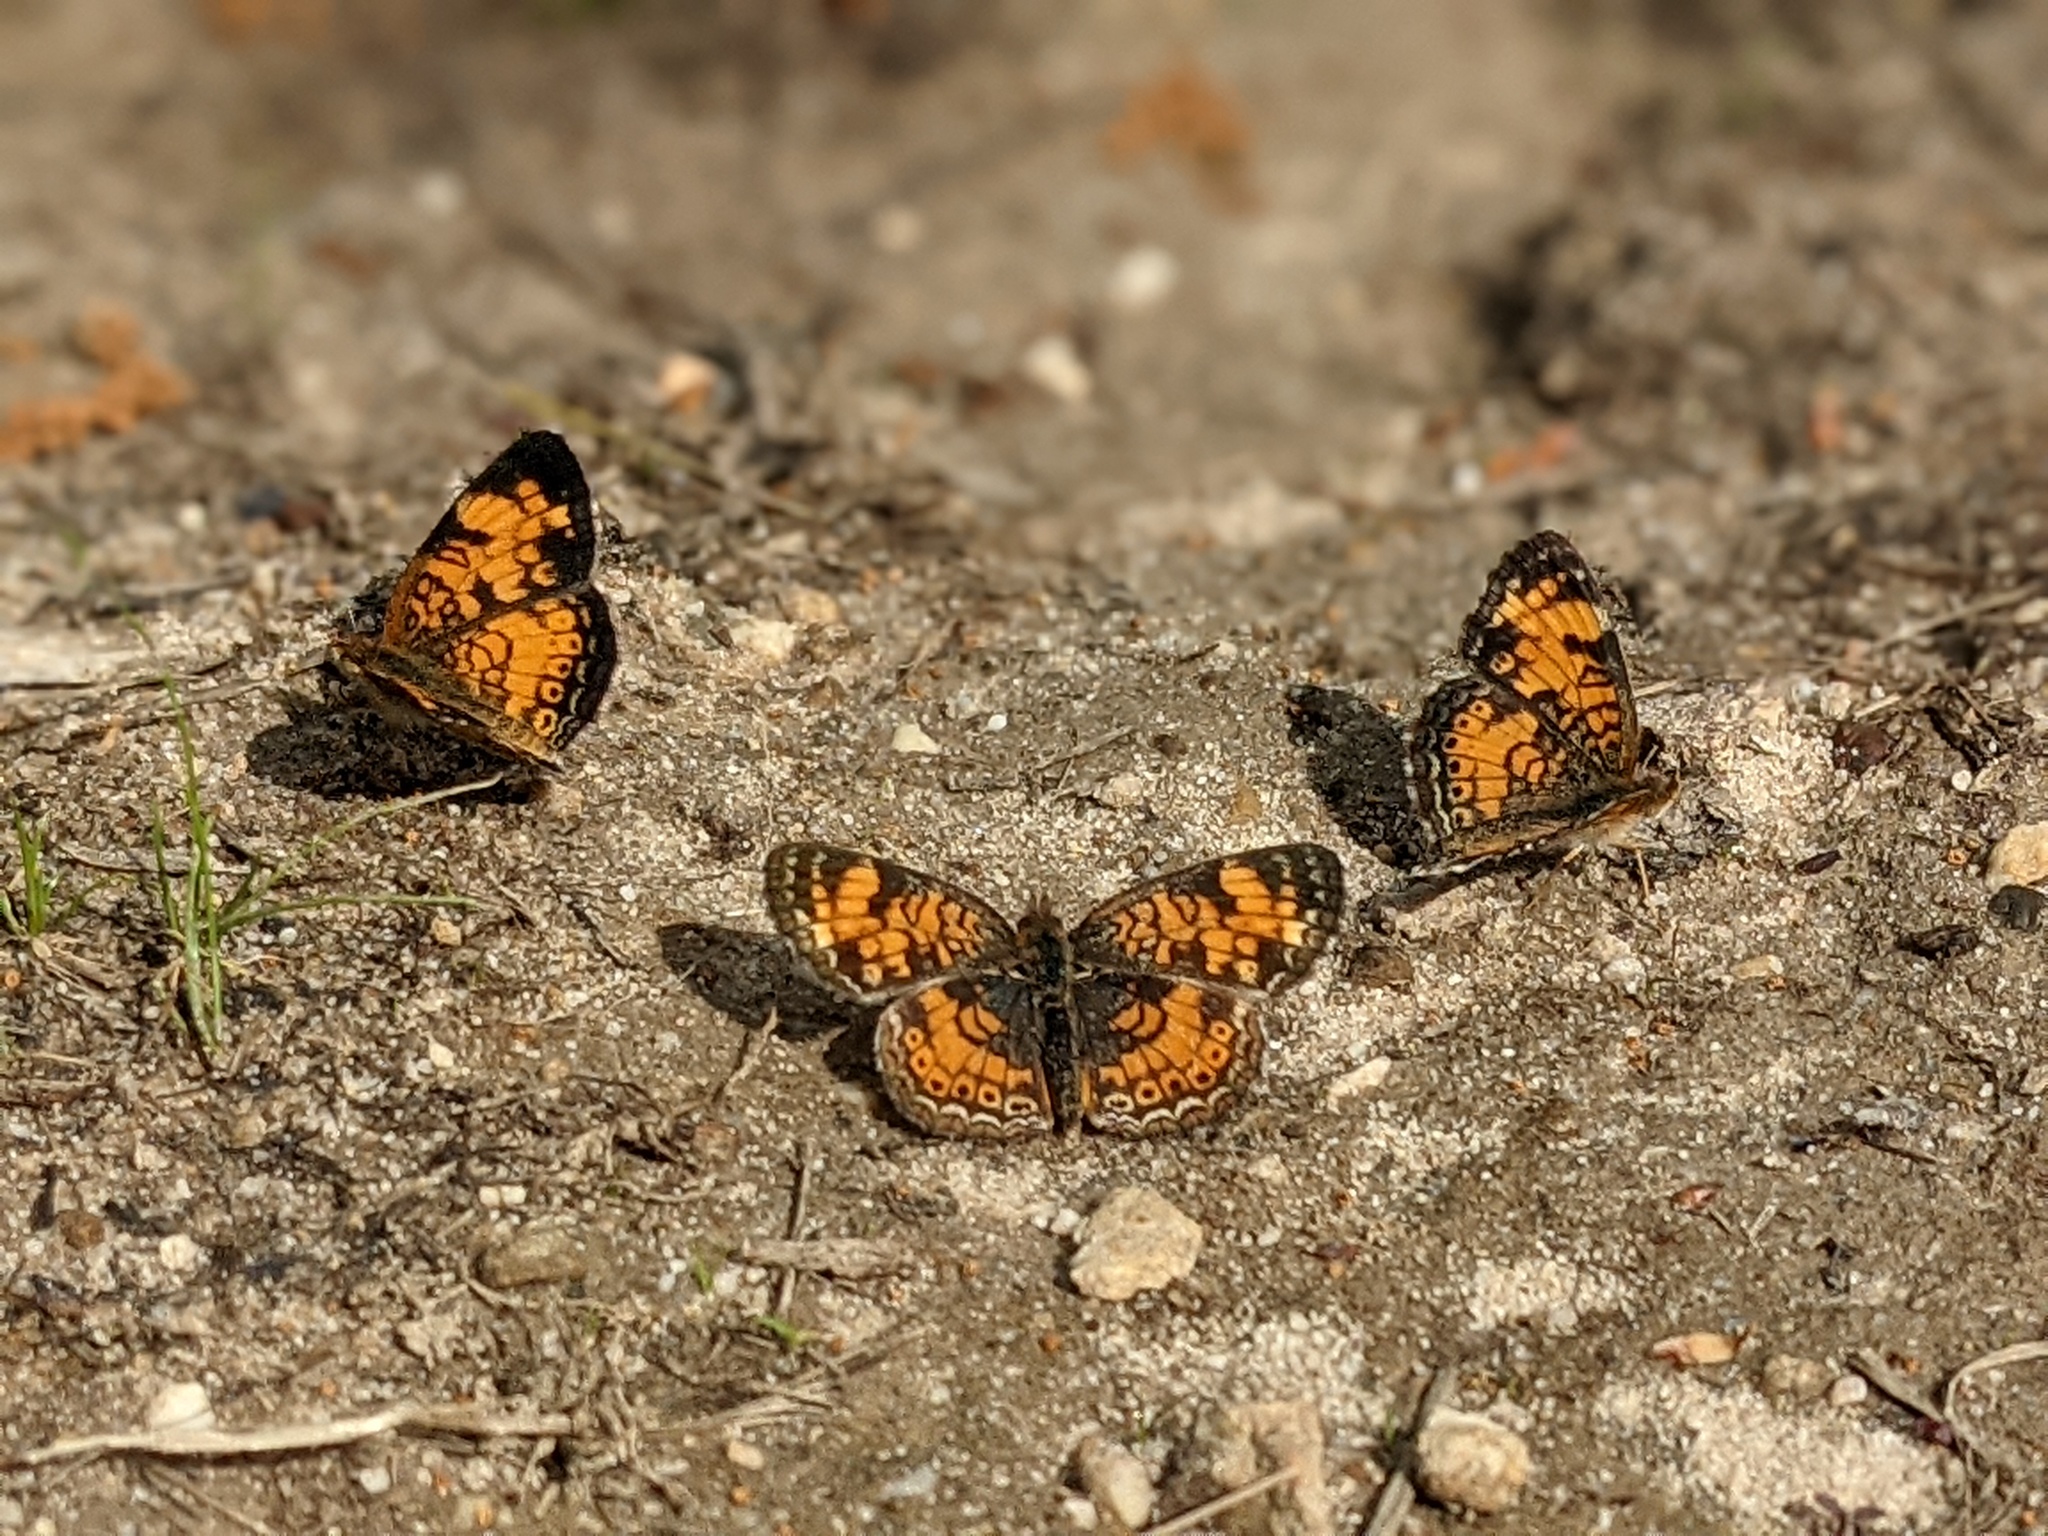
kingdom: Animalia
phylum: Arthropoda
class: Insecta
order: Lepidoptera
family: Nymphalidae
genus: Phyciodes
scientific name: Phyciodes tharos
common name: Pearl crescent
